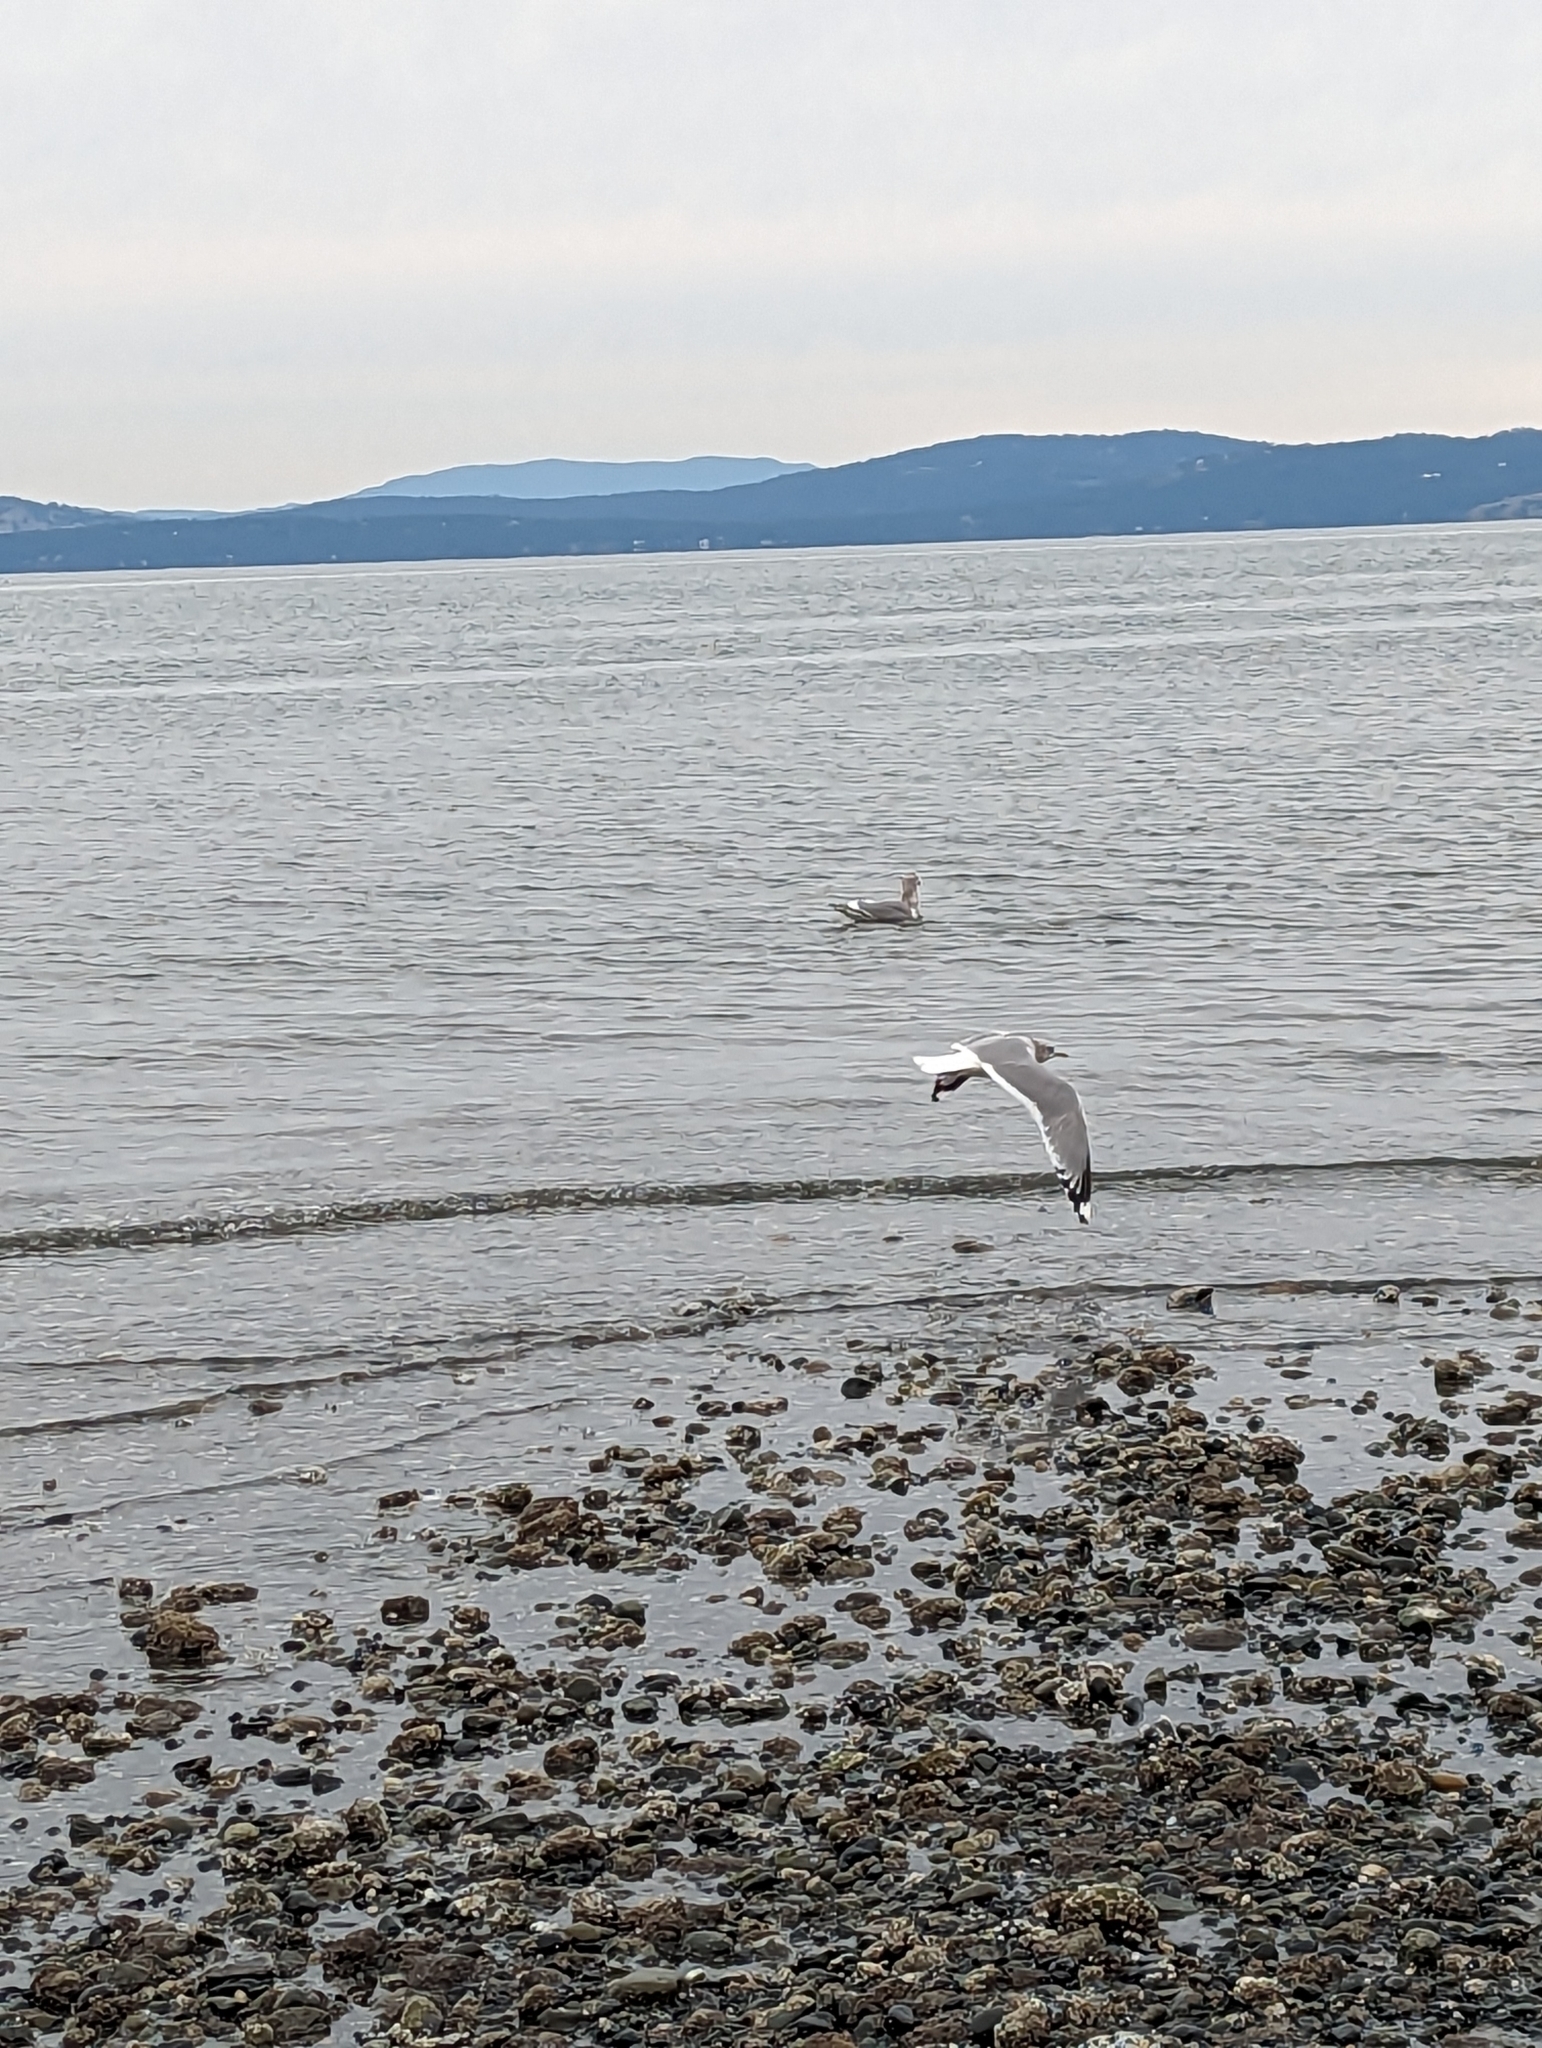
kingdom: Animalia
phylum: Chordata
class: Aves
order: Charadriiformes
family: Laridae
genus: Larus
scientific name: Larus brachyrhynchus
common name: Short-billed gull
